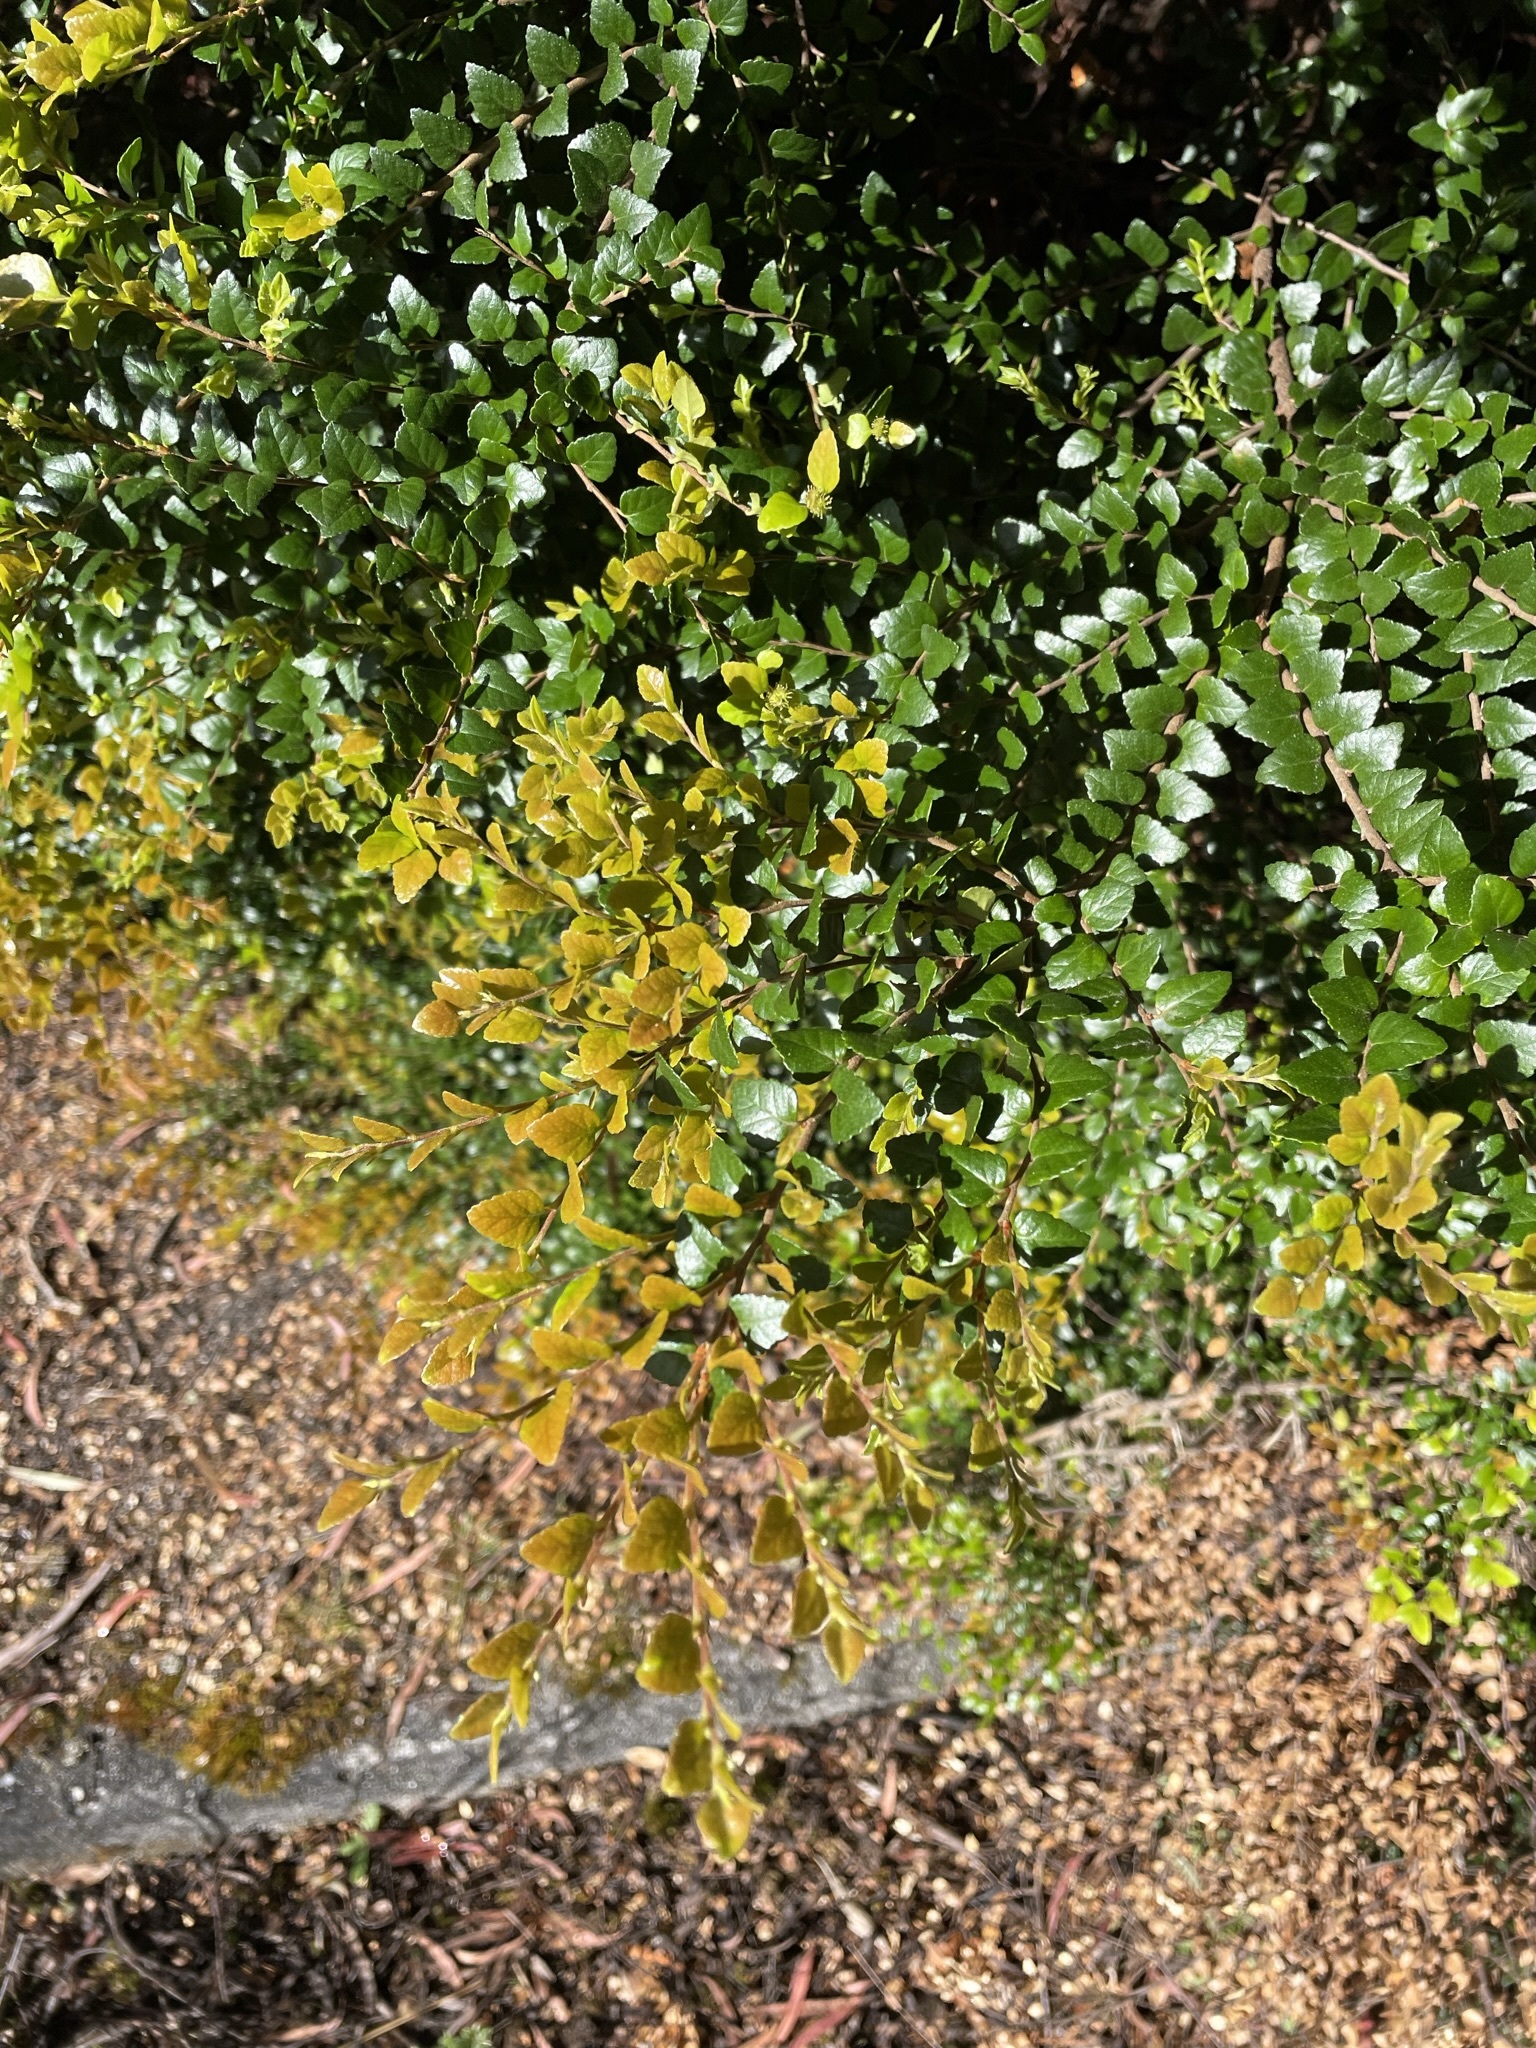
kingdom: Plantae
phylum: Tracheophyta
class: Magnoliopsida
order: Fagales
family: Nothofagaceae
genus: Nothofagus
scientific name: Nothofagus cunninghamii
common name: Myrtle beech
